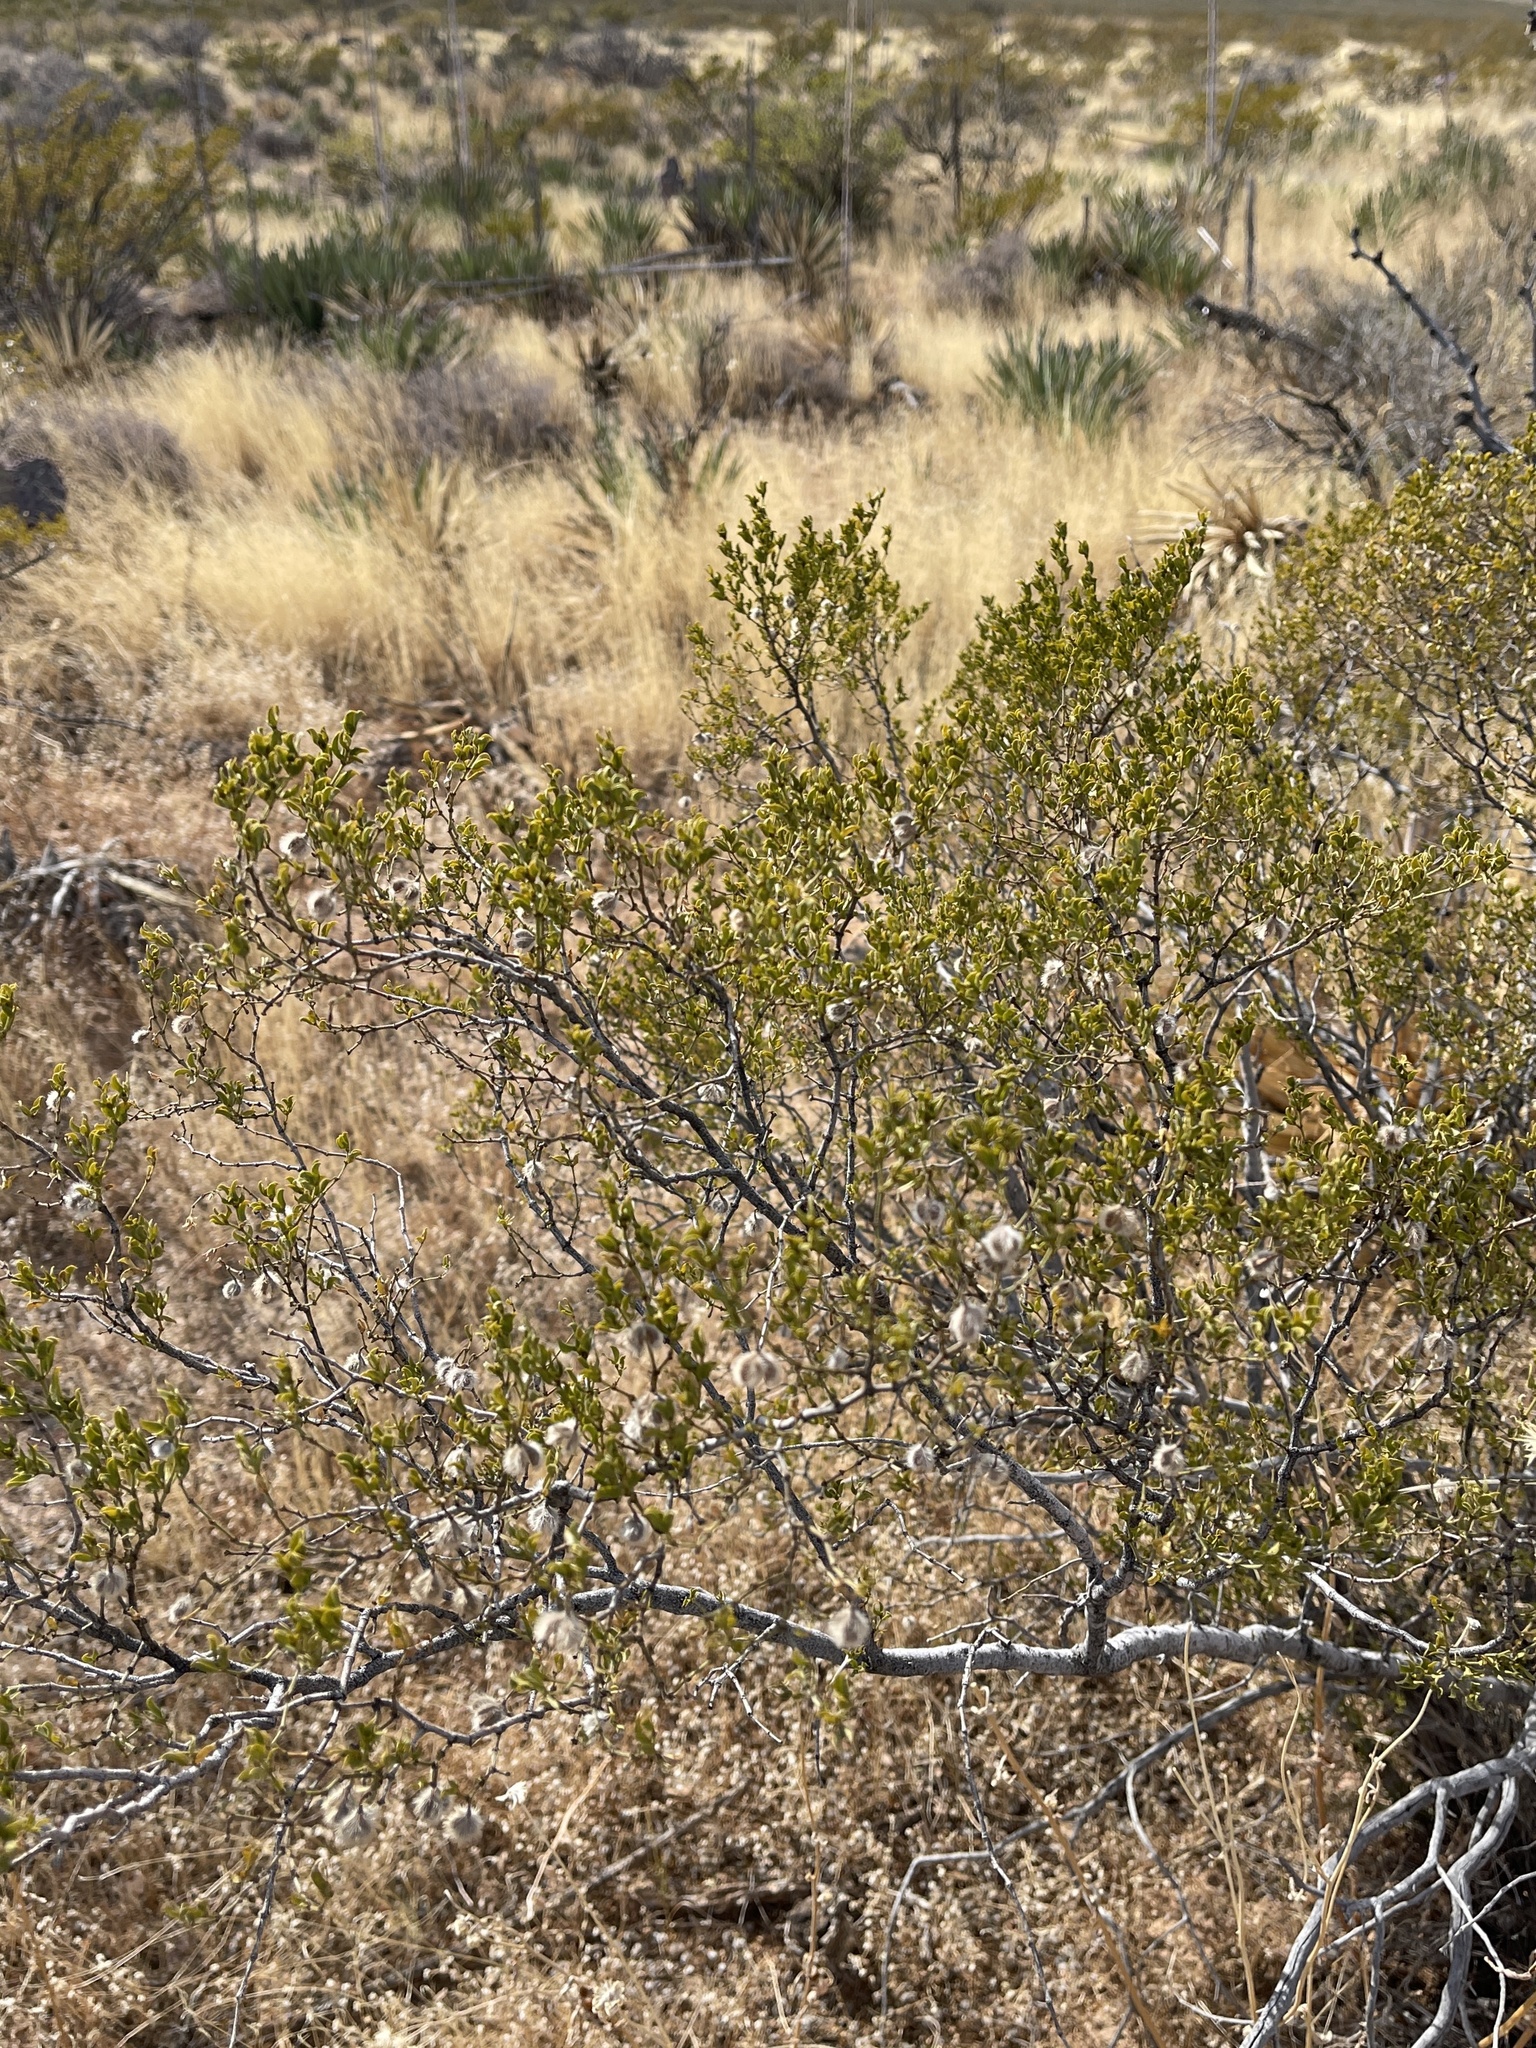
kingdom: Plantae
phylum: Tracheophyta
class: Magnoliopsida
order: Zygophyllales
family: Zygophyllaceae
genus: Larrea
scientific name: Larrea tridentata
